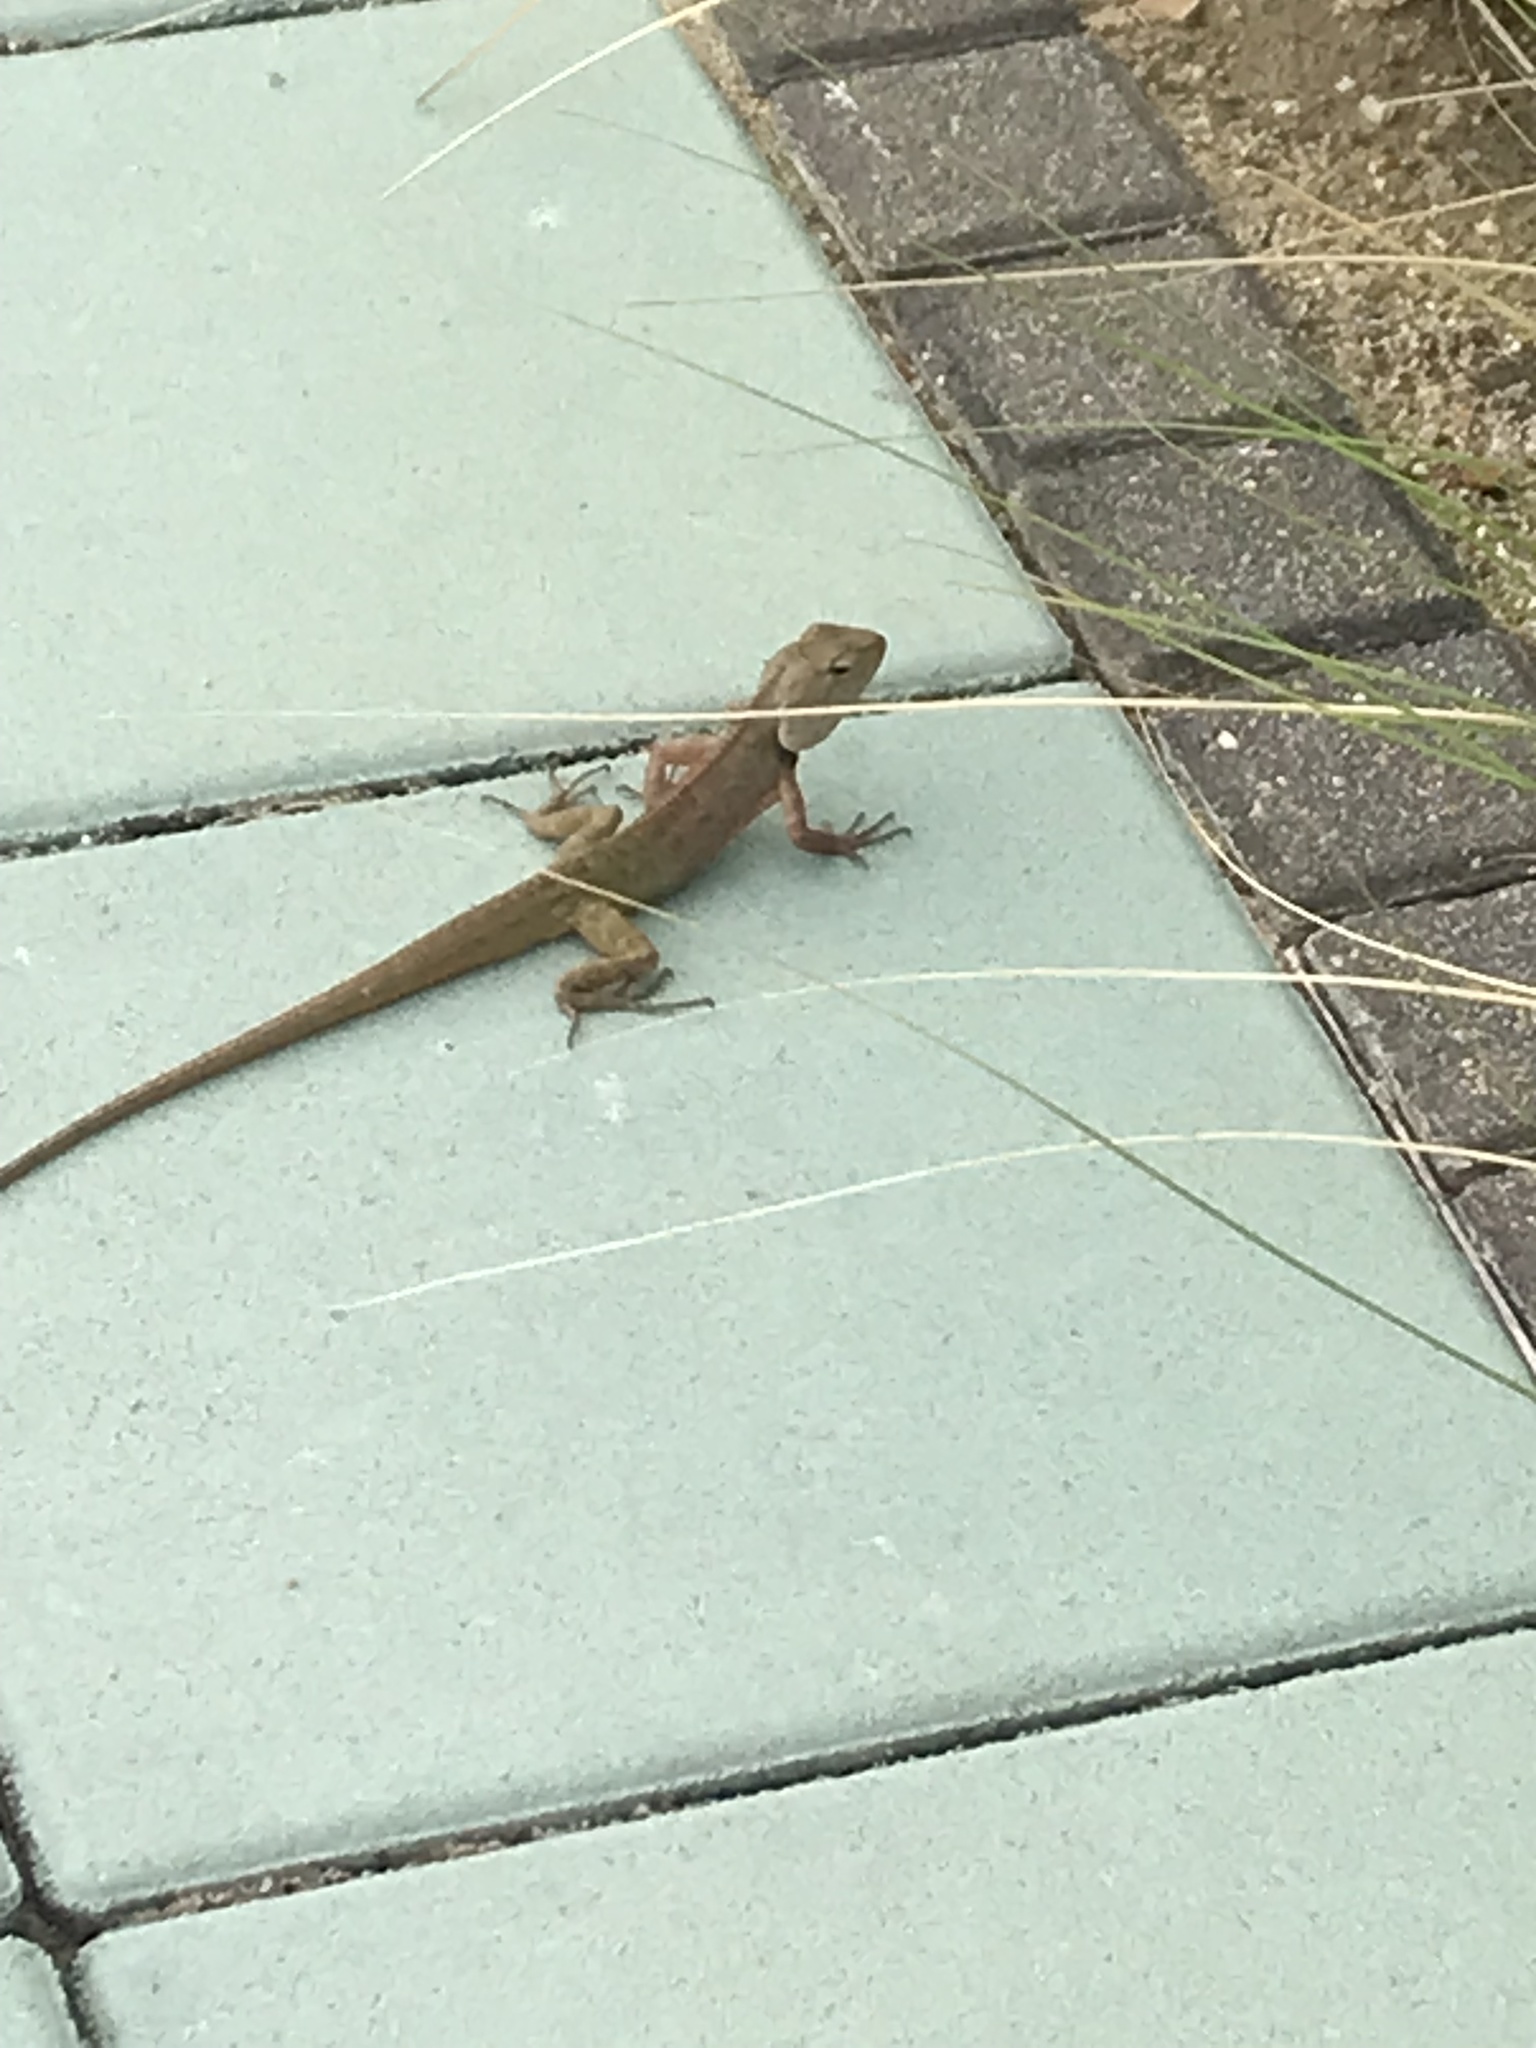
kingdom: Animalia
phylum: Chordata
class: Squamata
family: Agamidae
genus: Calotes
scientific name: Calotes versicolor
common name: Oriental garden lizard
